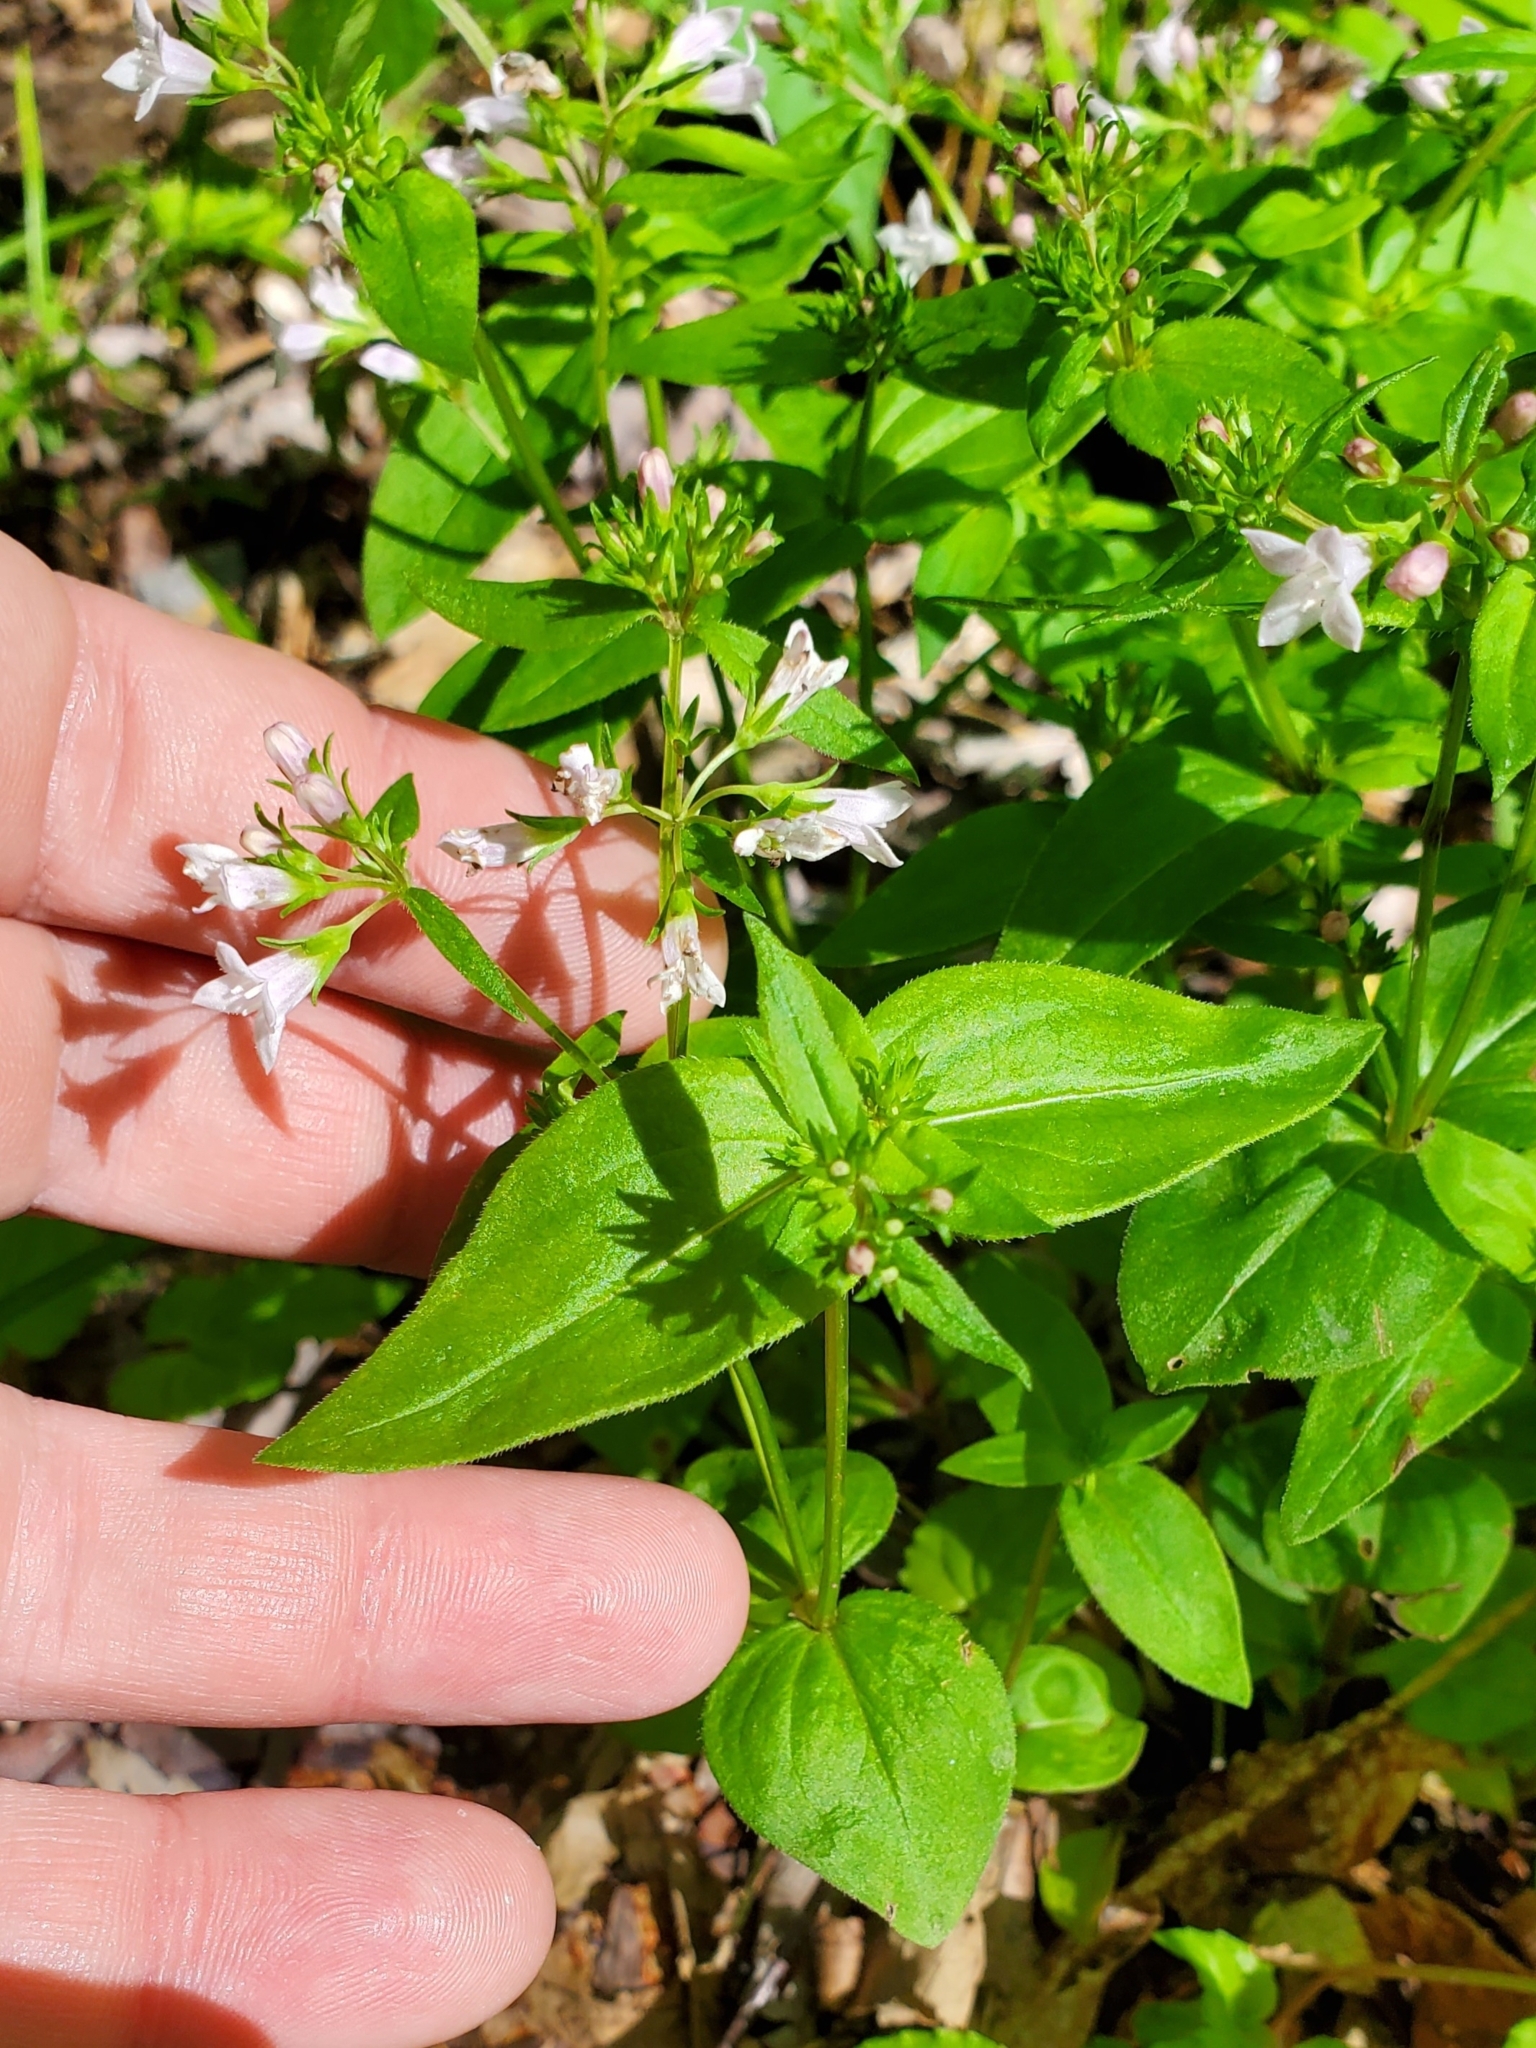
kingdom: Plantae
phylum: Tracheophyta
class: Magnoliopsida
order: Gentianales
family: Rubiaceae
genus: Houstonia
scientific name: Houstonia purpurea
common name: Summer bluet
